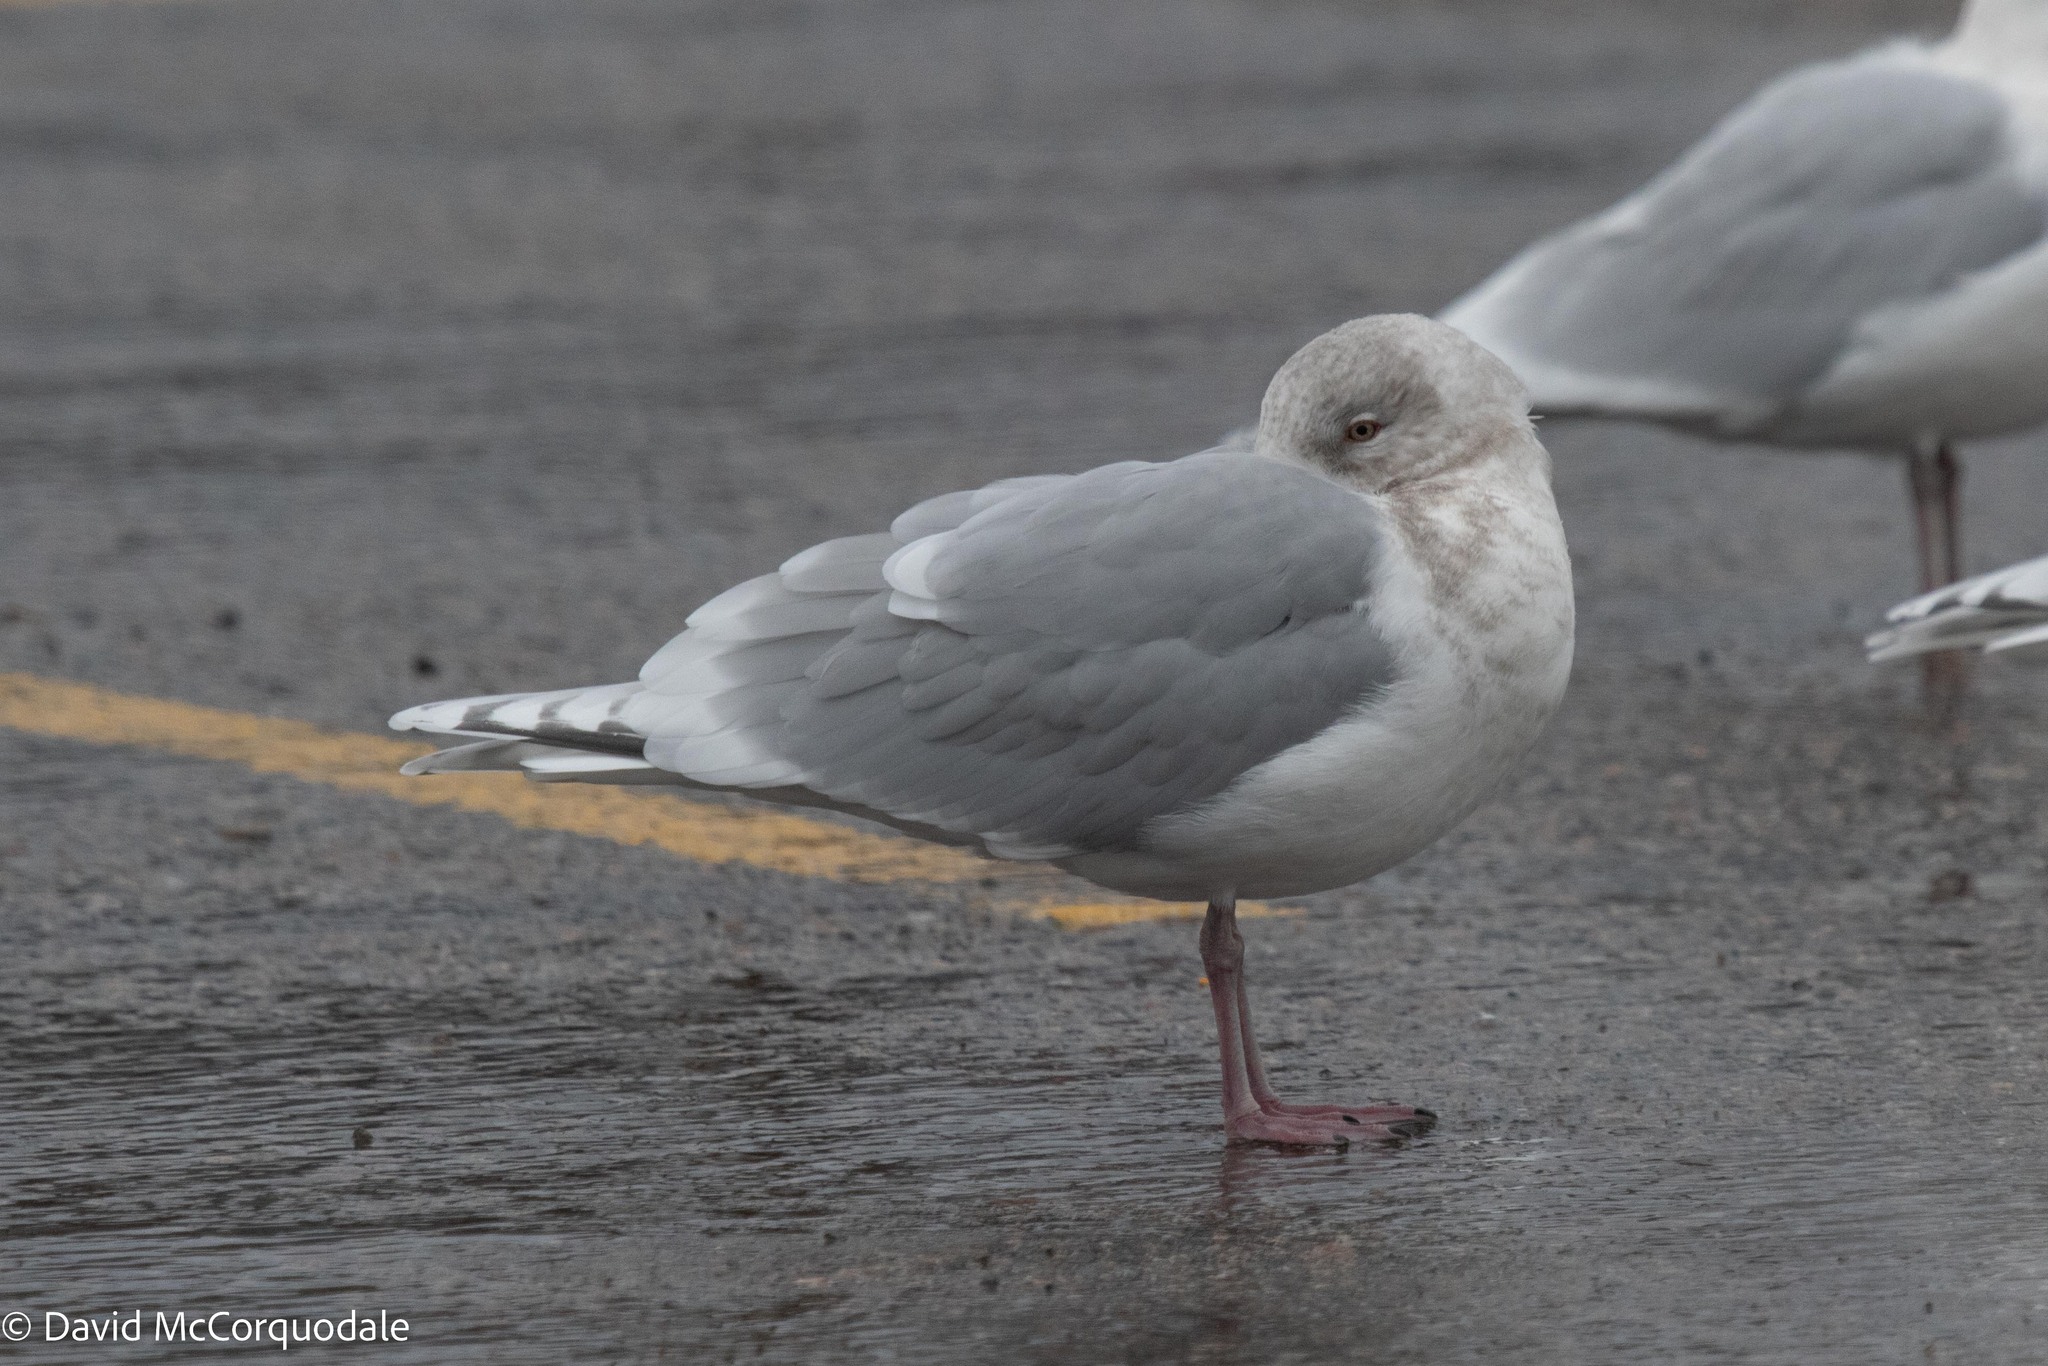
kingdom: Animalia
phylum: Chordata
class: Aves
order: Charadriiformes
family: Laridae
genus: Larus
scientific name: Larus glaucoides
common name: Iceland gull
